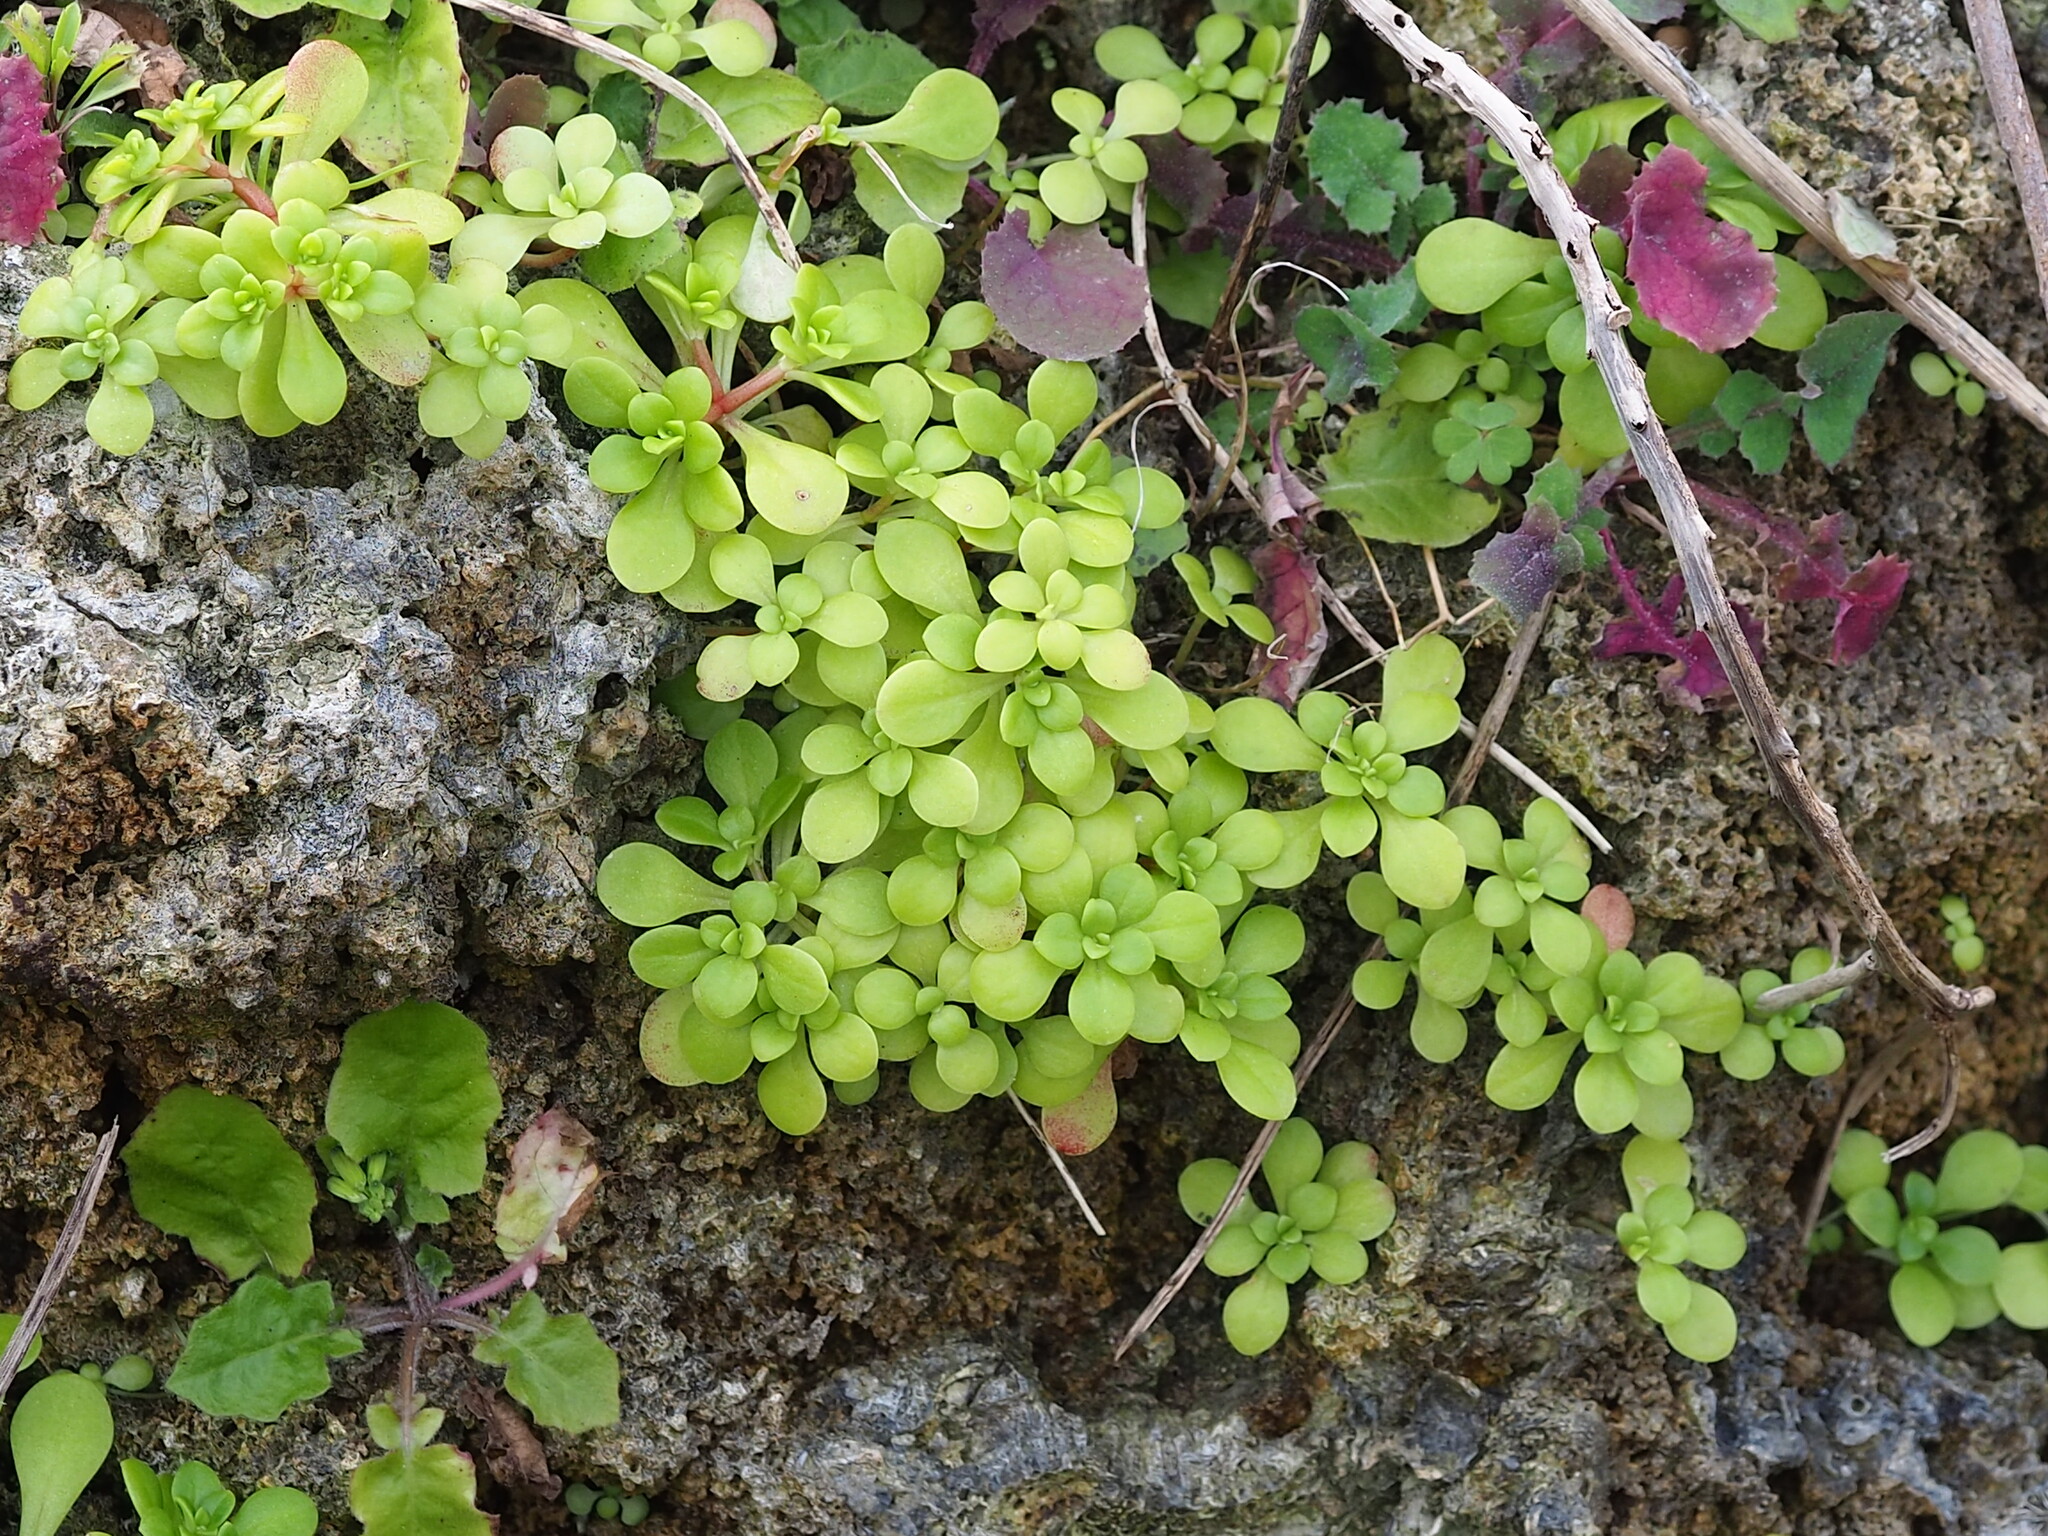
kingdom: Plantae
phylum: Tracheophyta
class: Magnoliopsida
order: Saxifragales
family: Crassulaceae
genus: Sedum
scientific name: Sedum formosanum
